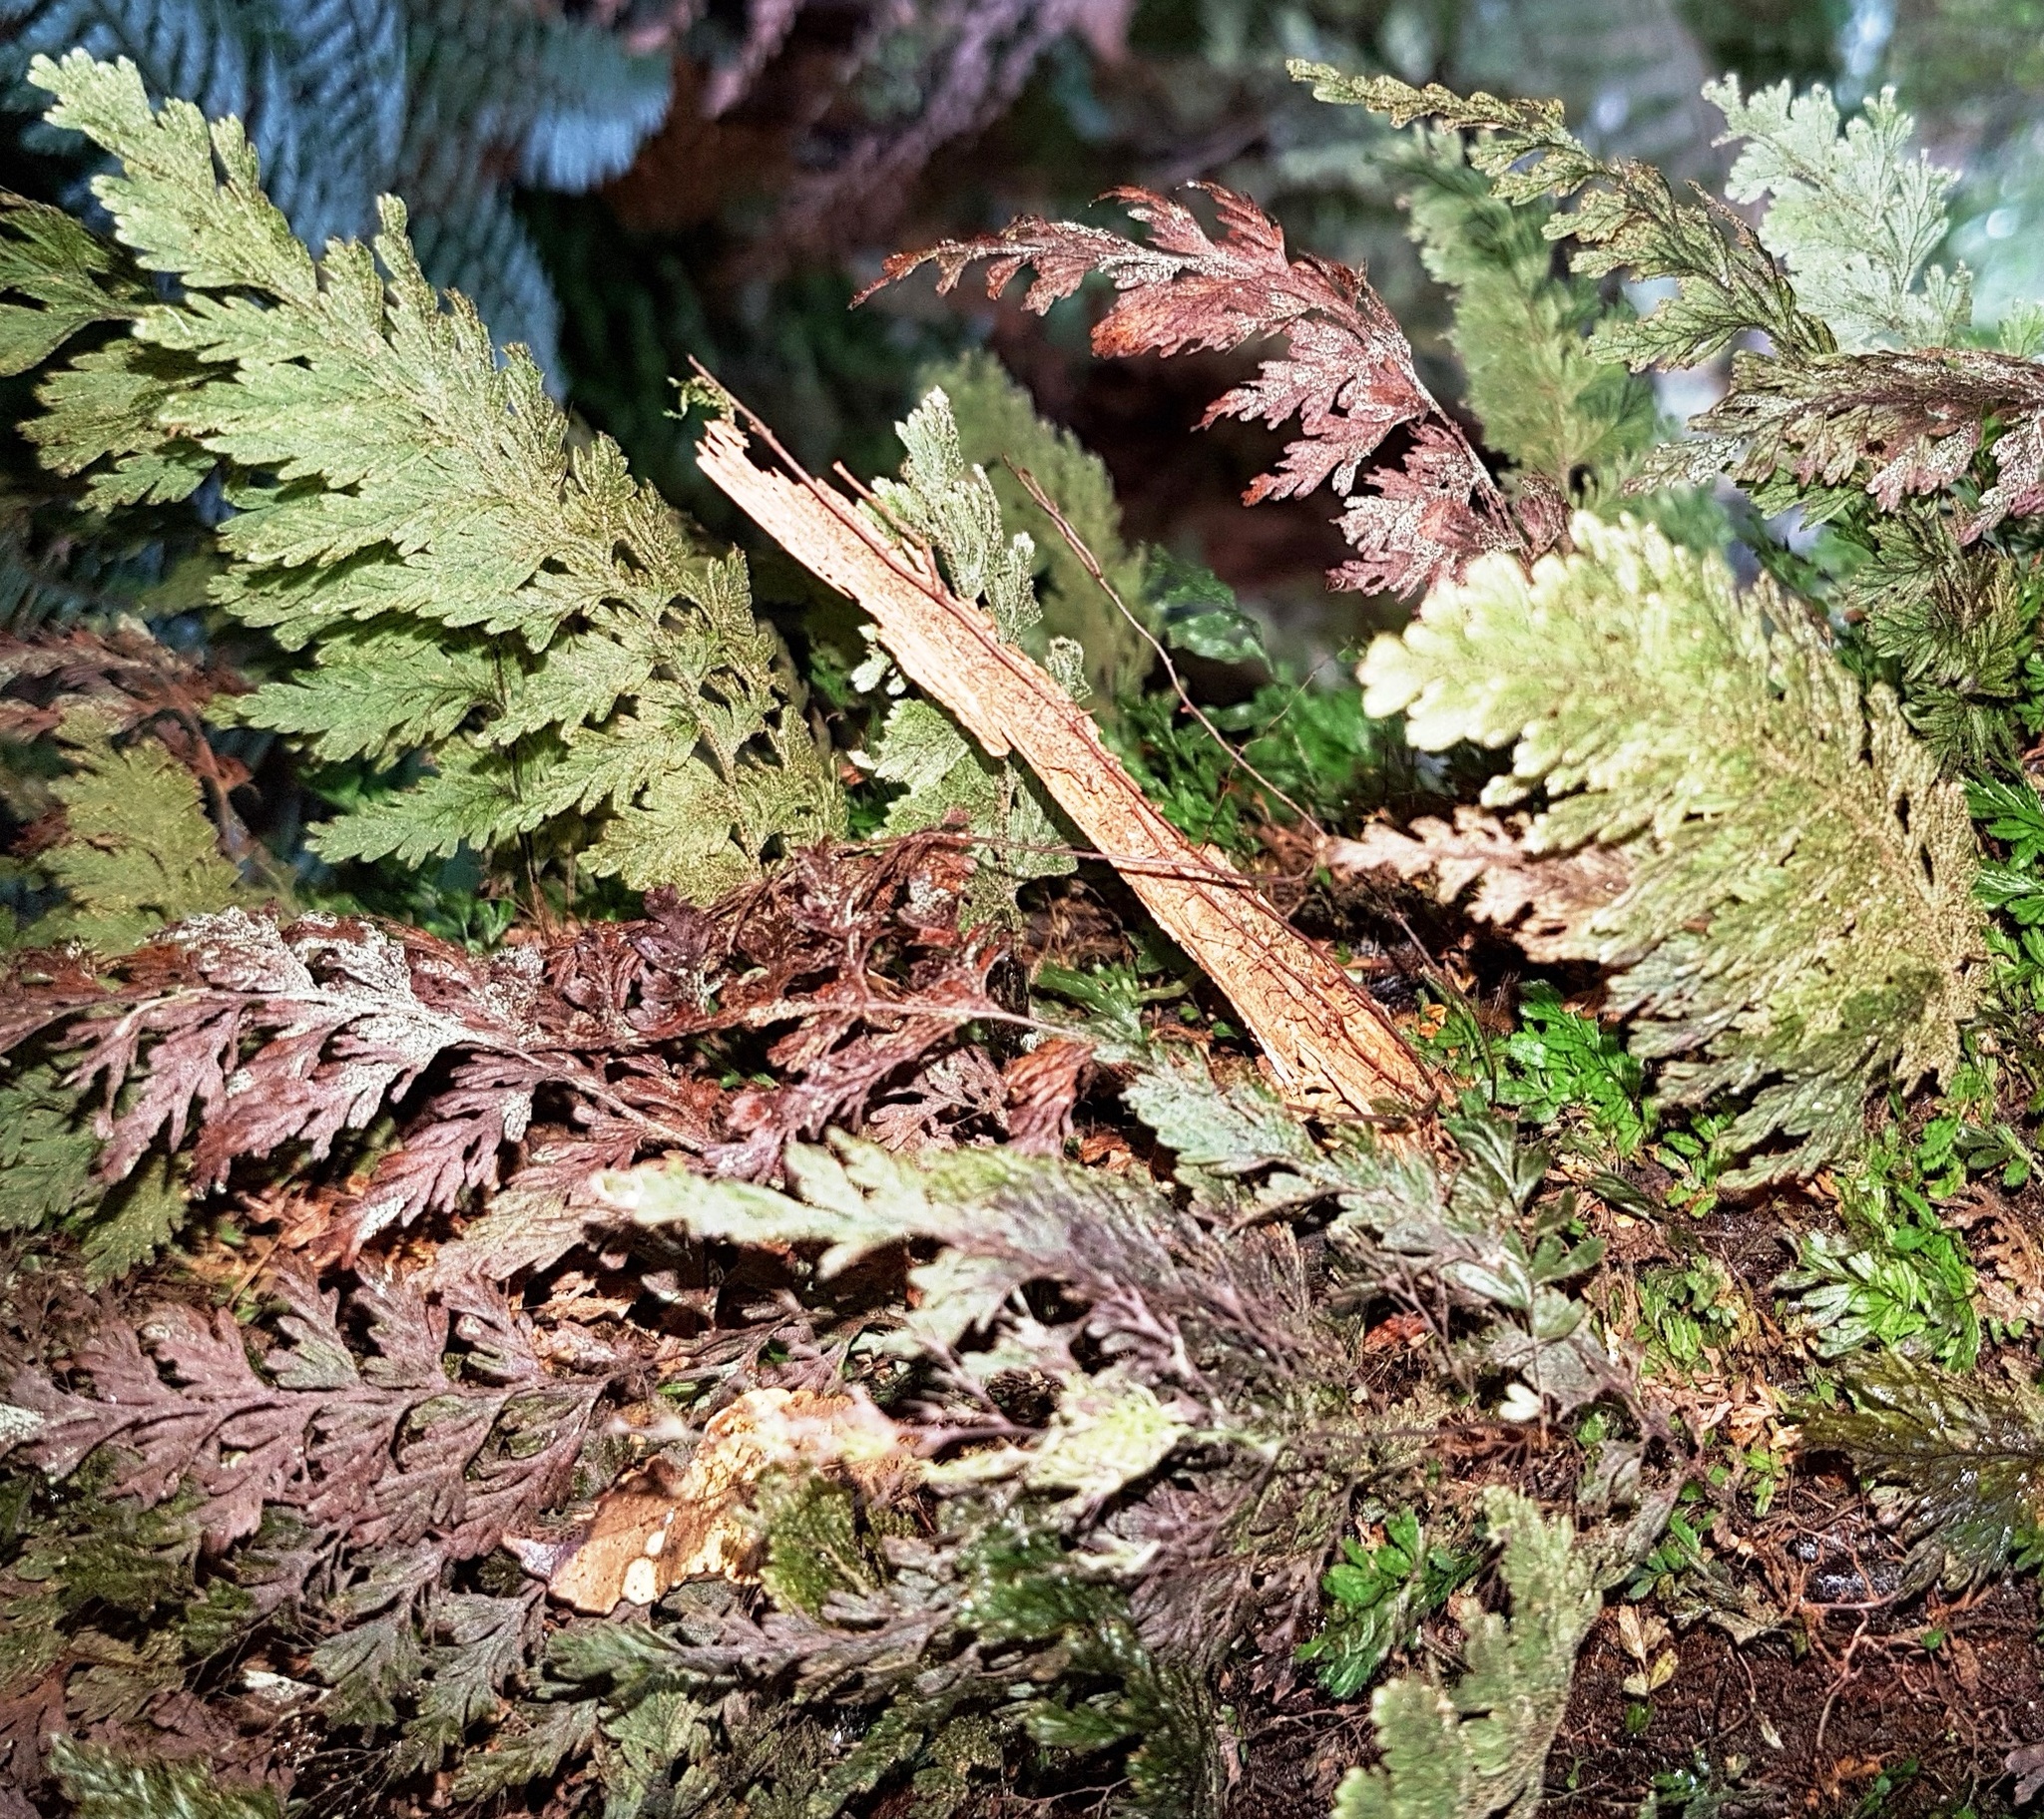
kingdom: Plantae
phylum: Tracheophyta
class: Polypodiopsida
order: Hymenophyllales
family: Hymenophyllaceae
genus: Hymenophyllum
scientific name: Hymenophyllum frankliniae
